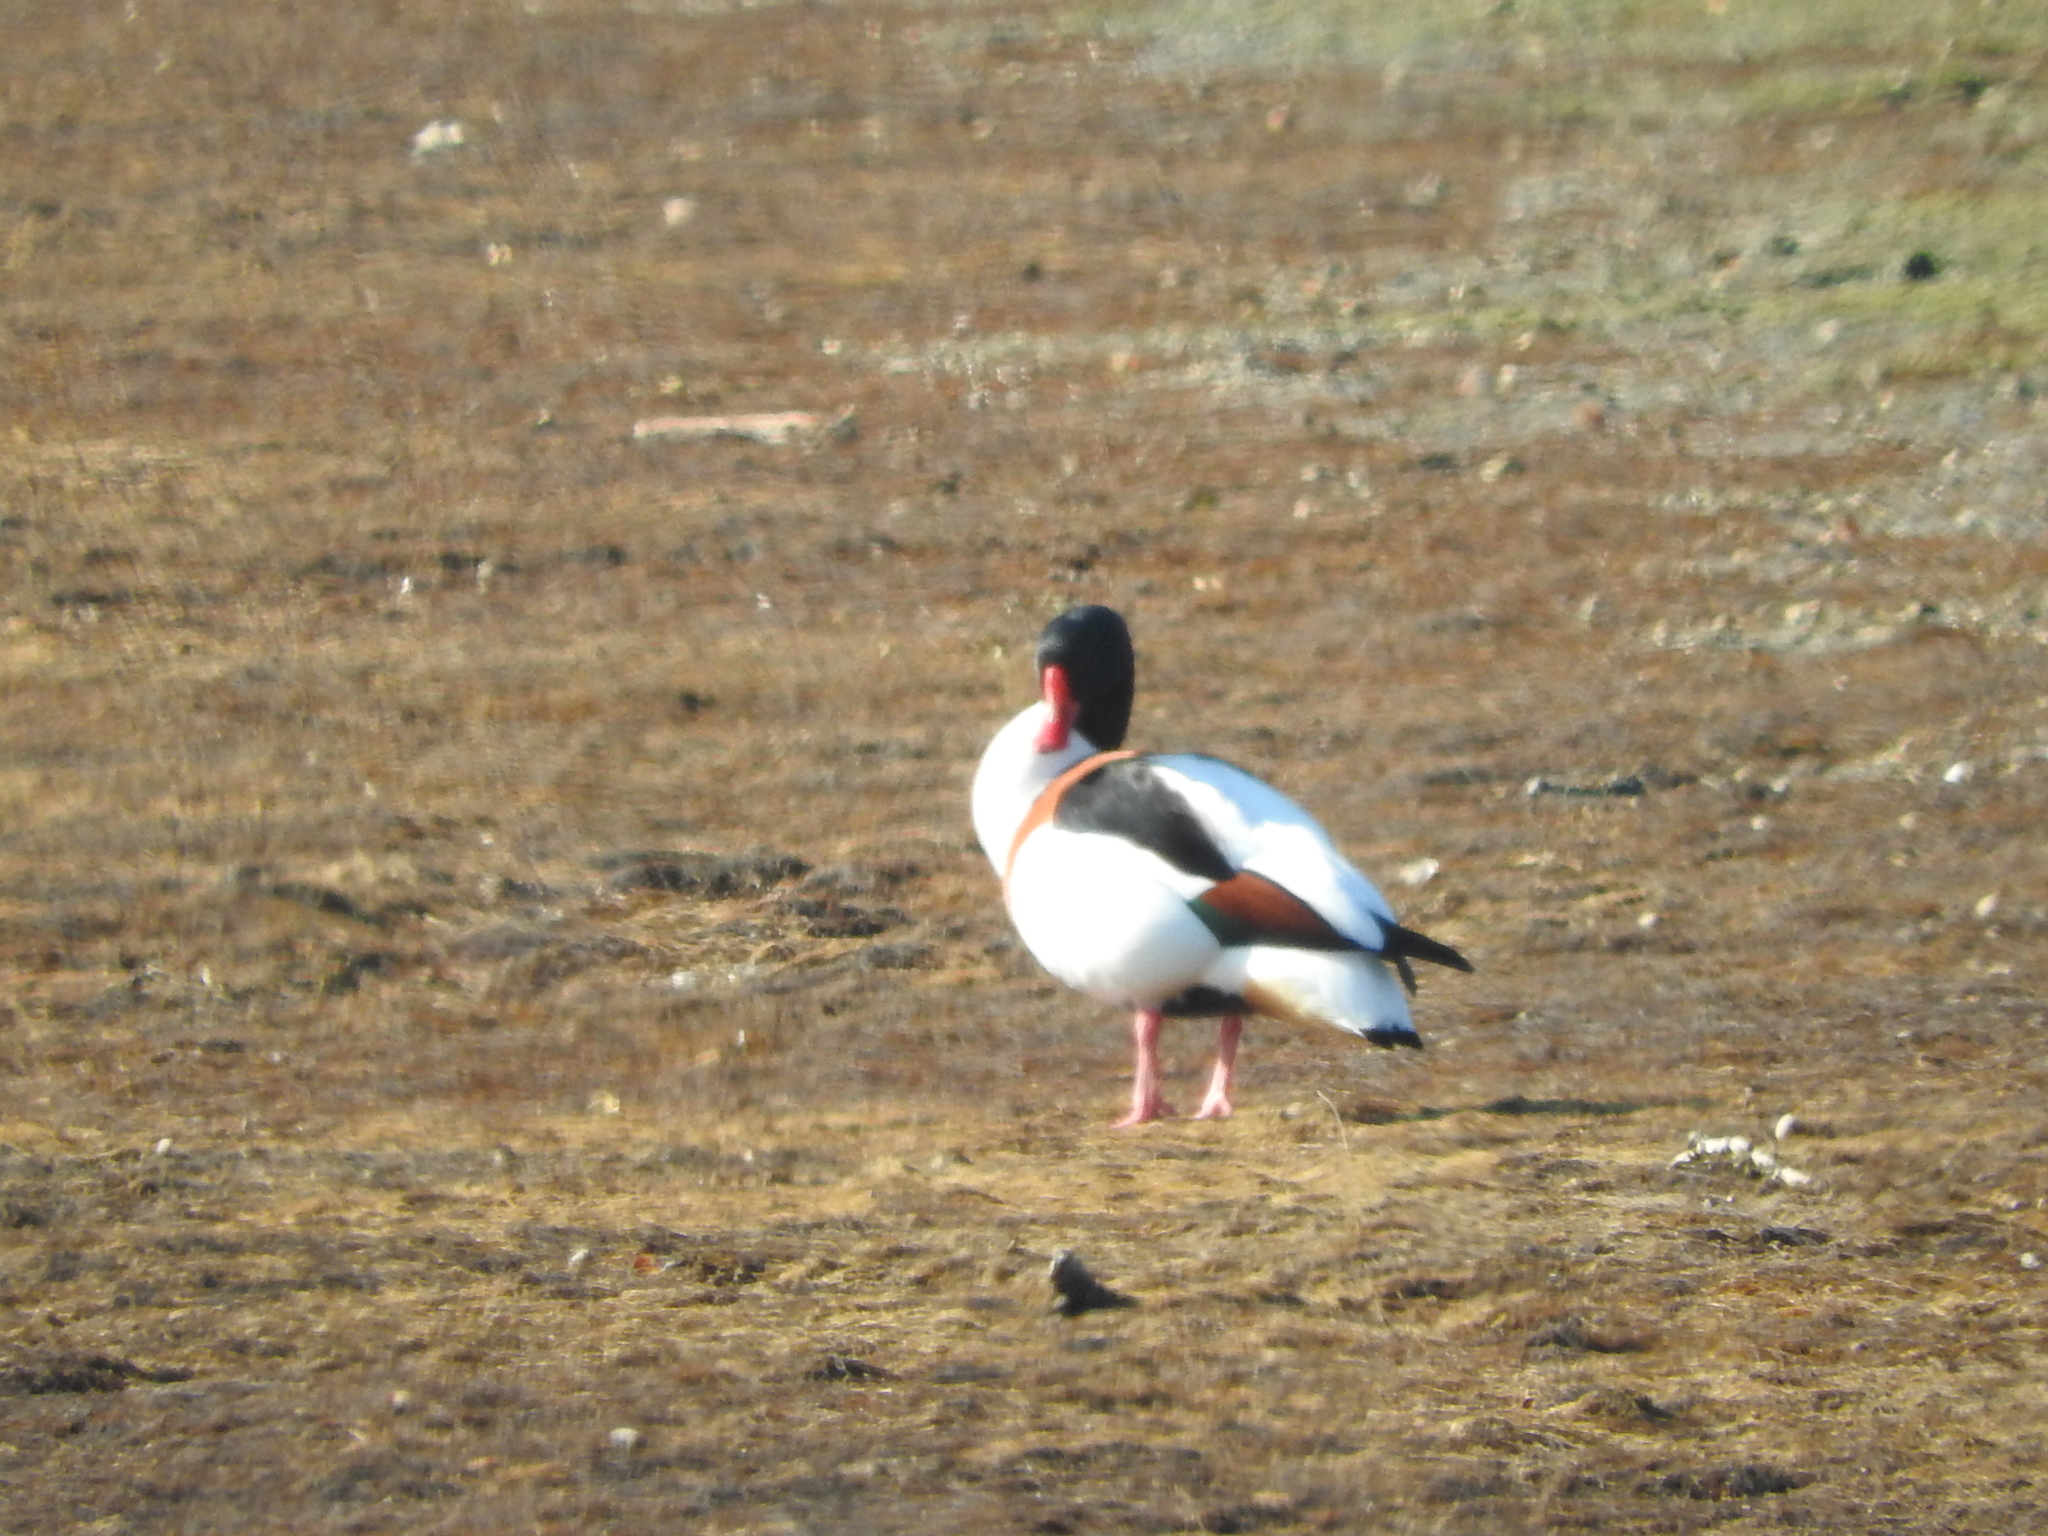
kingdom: Animalia
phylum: Chordata
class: Aves
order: Anseriformes
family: Anatidae
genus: Tadorna
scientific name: Tadorna tadorna
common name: Common shelduck
